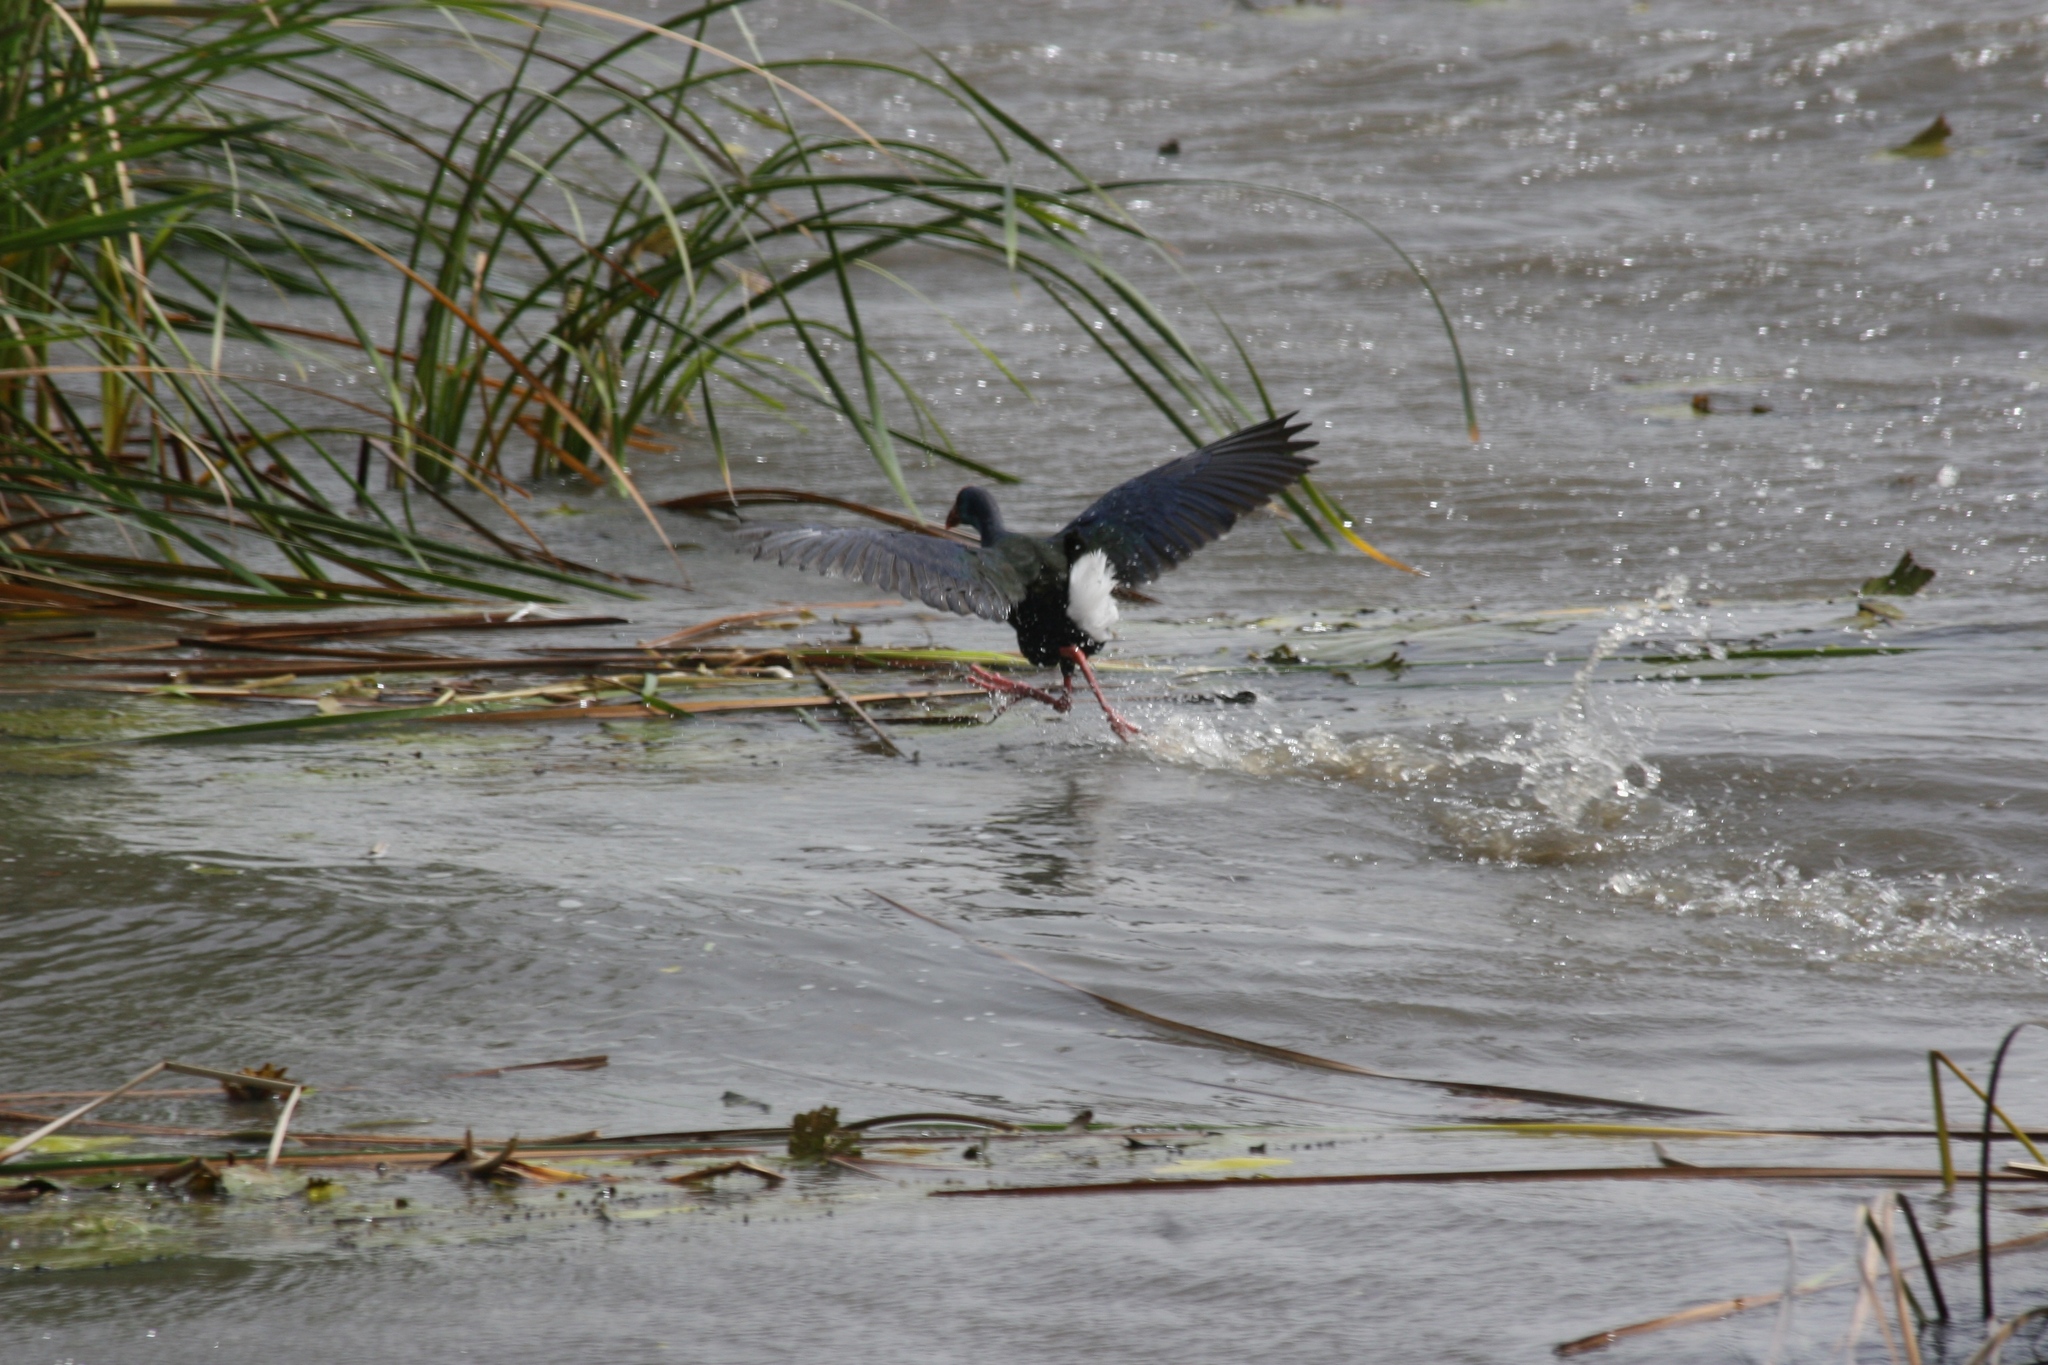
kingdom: Animalia
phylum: Chordata
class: Aves
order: Gruiformes
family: Rallidae
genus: Porphyrio
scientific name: Porphyrio porphyrio
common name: Purple swamphen
